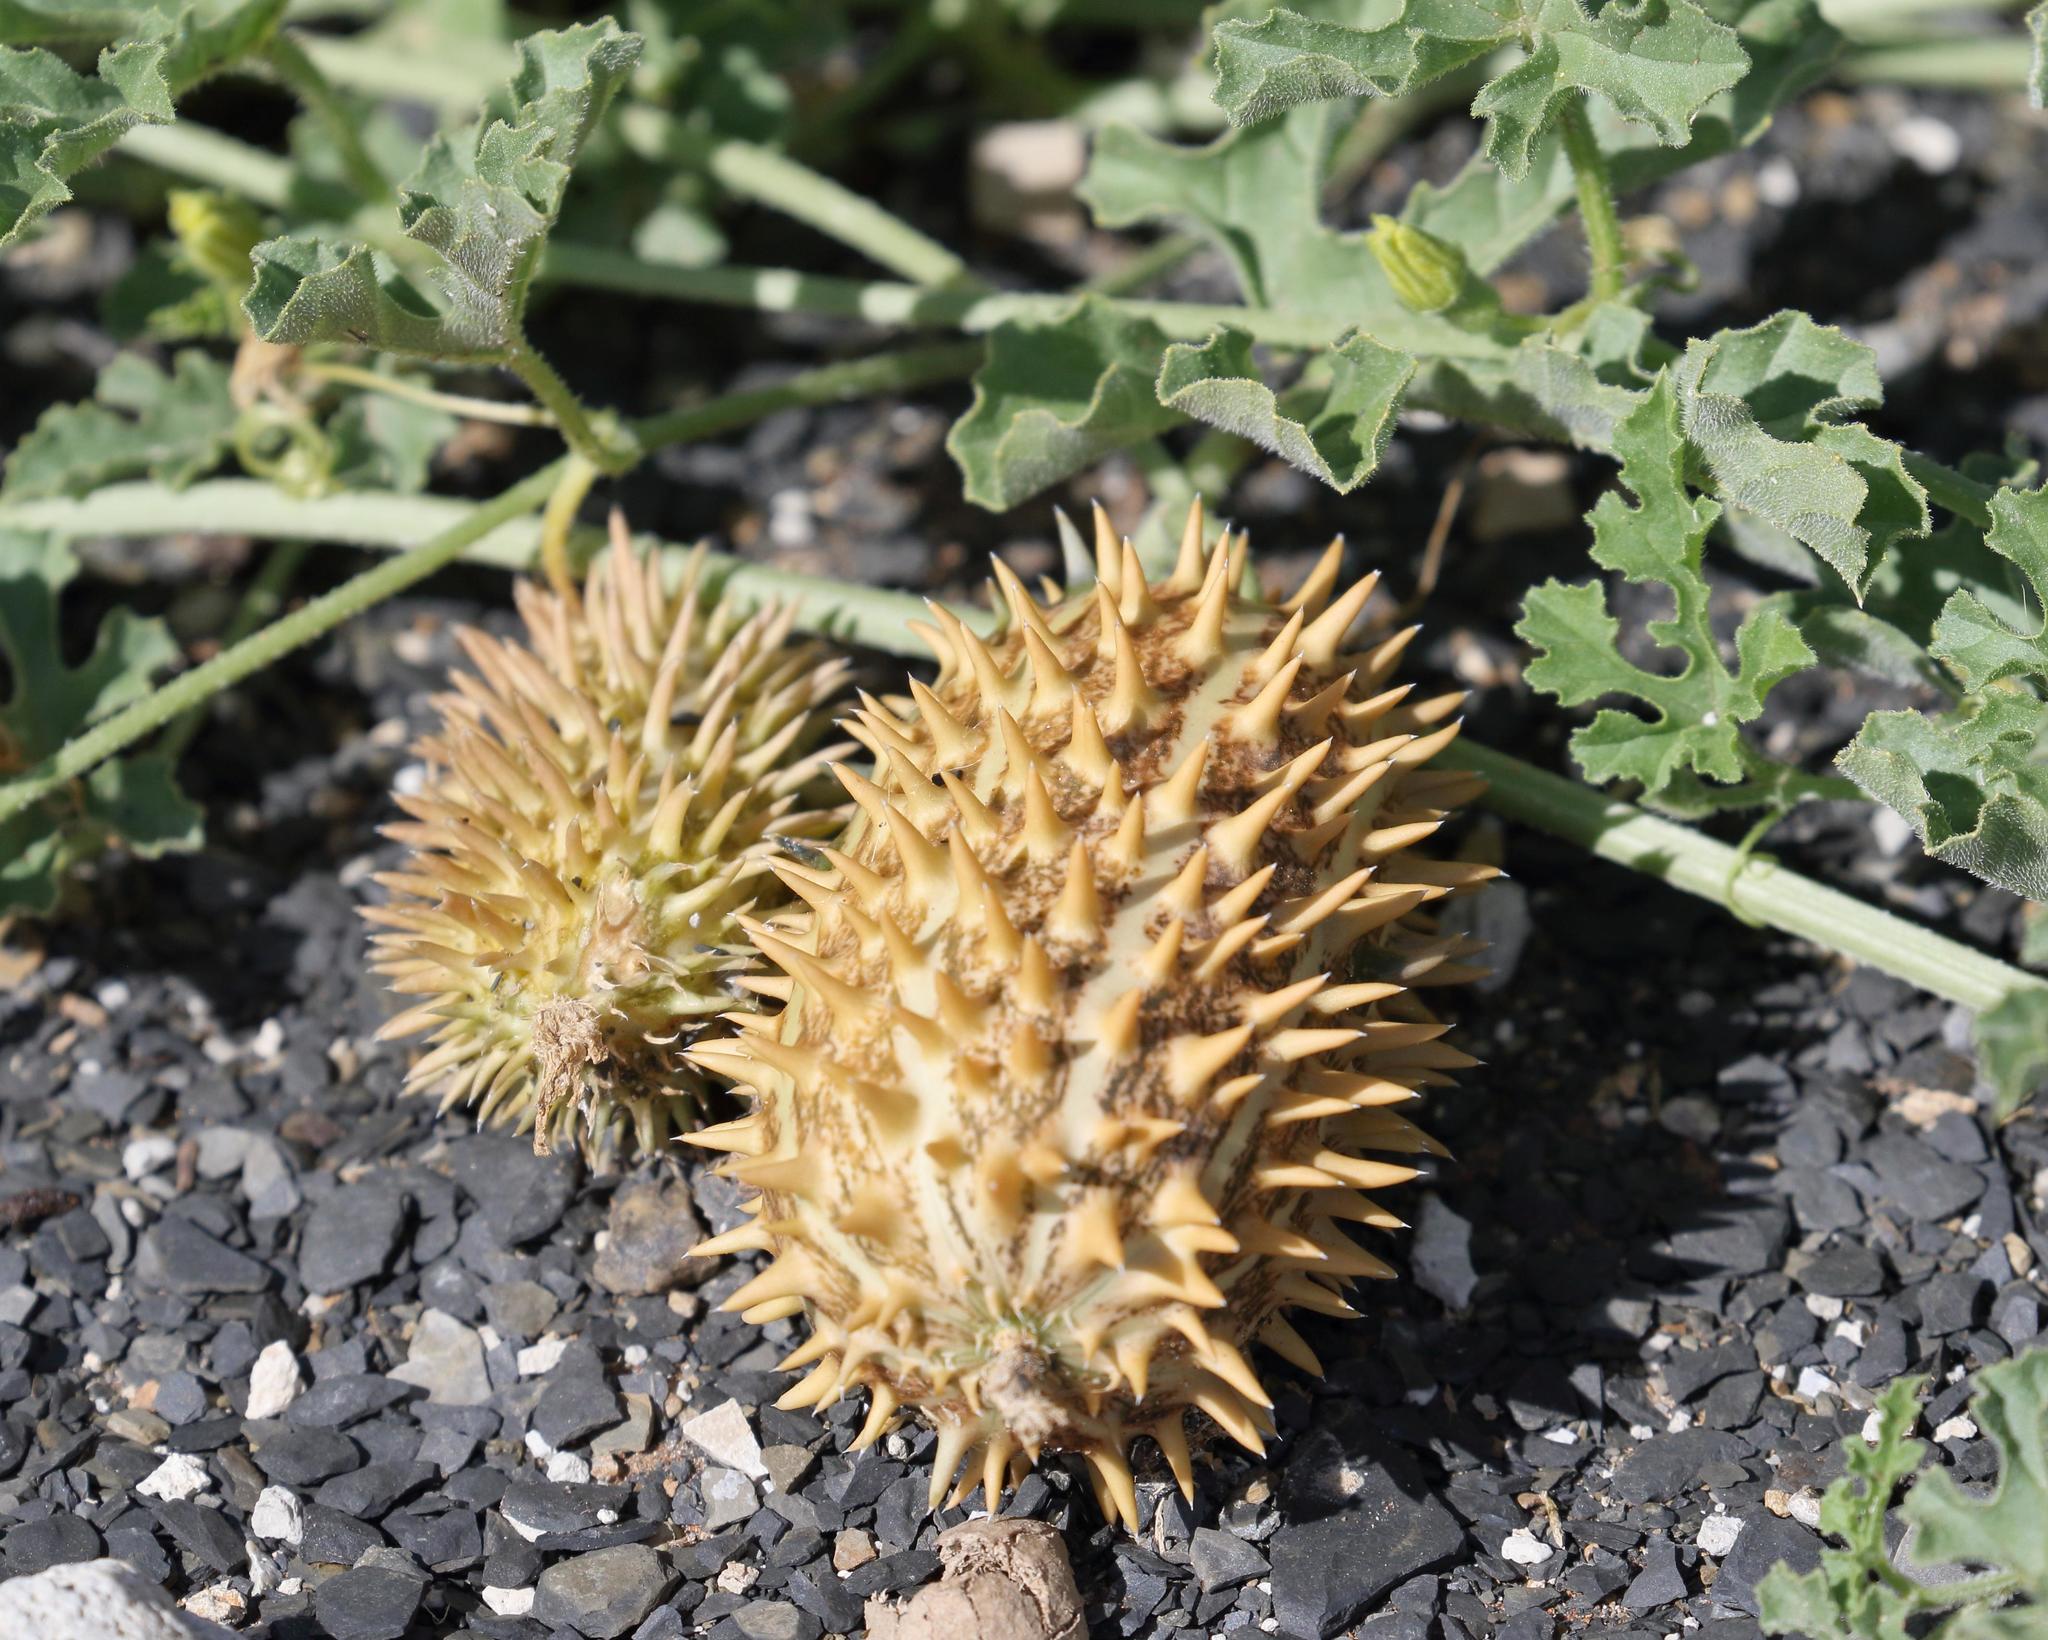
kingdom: Plantae
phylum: Tracheophyta
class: Magnoliopsida
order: Cucurbitales
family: Cucurbitaceae
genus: Cucumis
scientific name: Cucumis africanus
